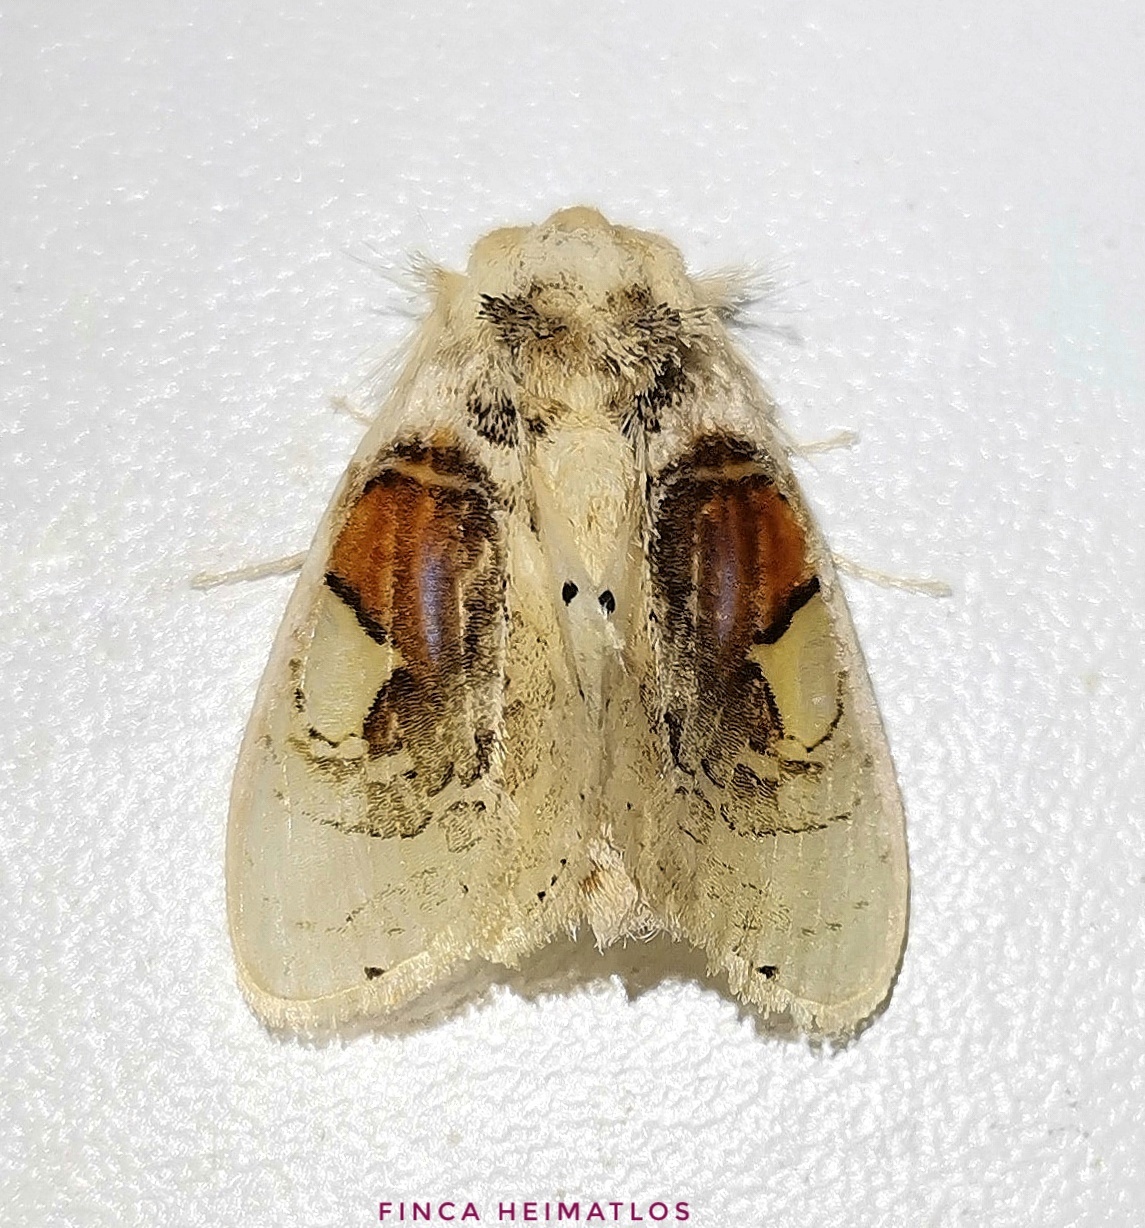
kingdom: Animalia
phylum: Arthropoda
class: Insecta
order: Lepidoptera
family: Psychidae
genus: Arrhenophanes
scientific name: Arrhenophanes perspicilla
